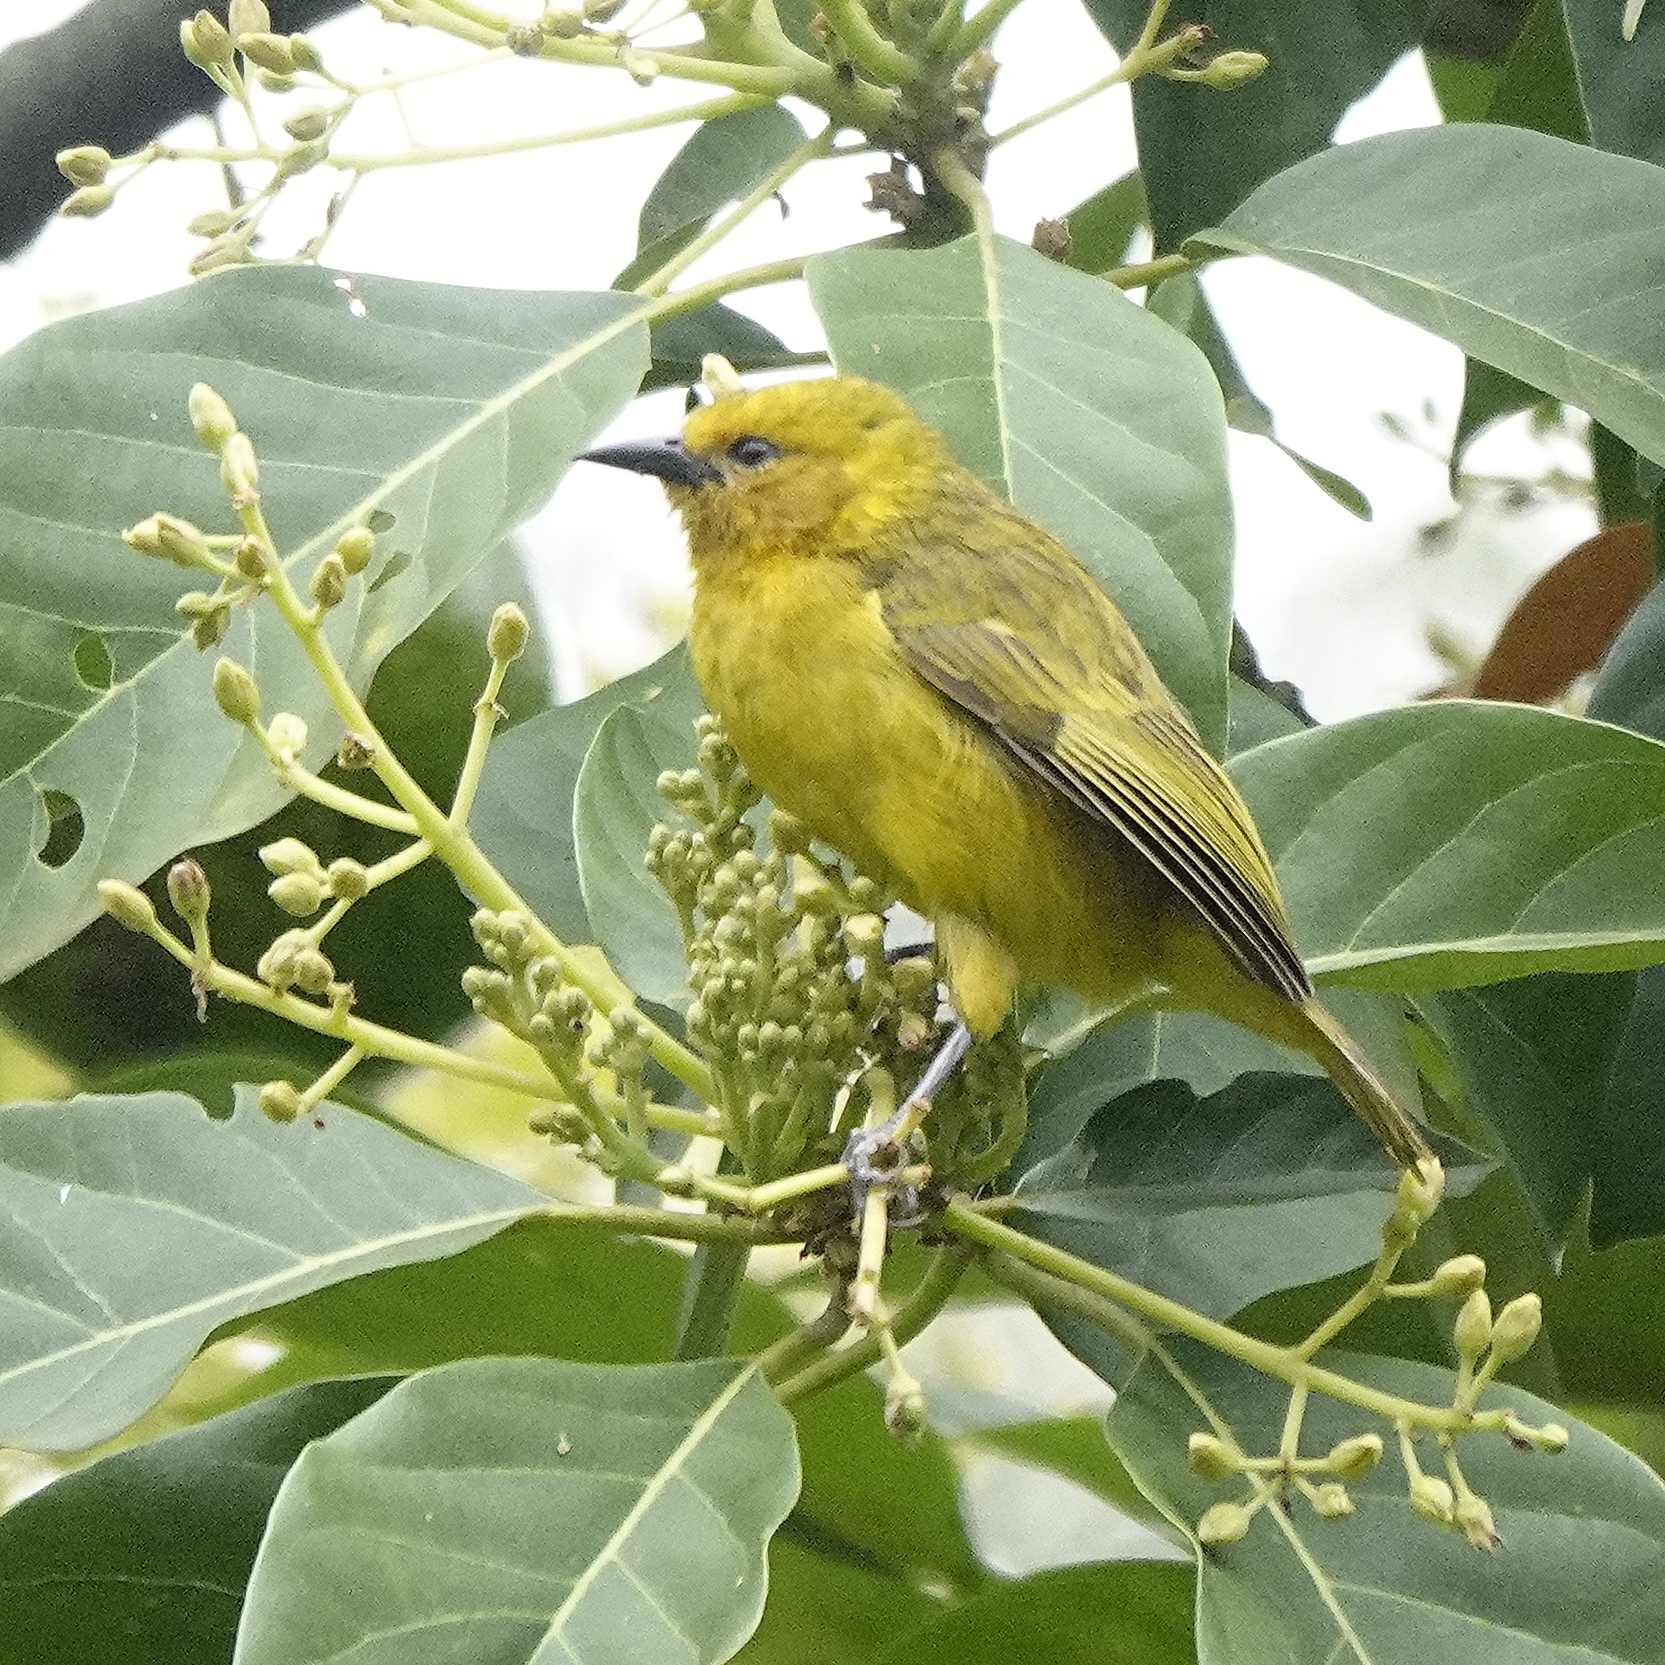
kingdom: Animalia
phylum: Chordata
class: Aves
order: Passeriformes
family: Ploceidae
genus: Ploceus
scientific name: Ploceus pelzelni
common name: Slender-billed weaver
